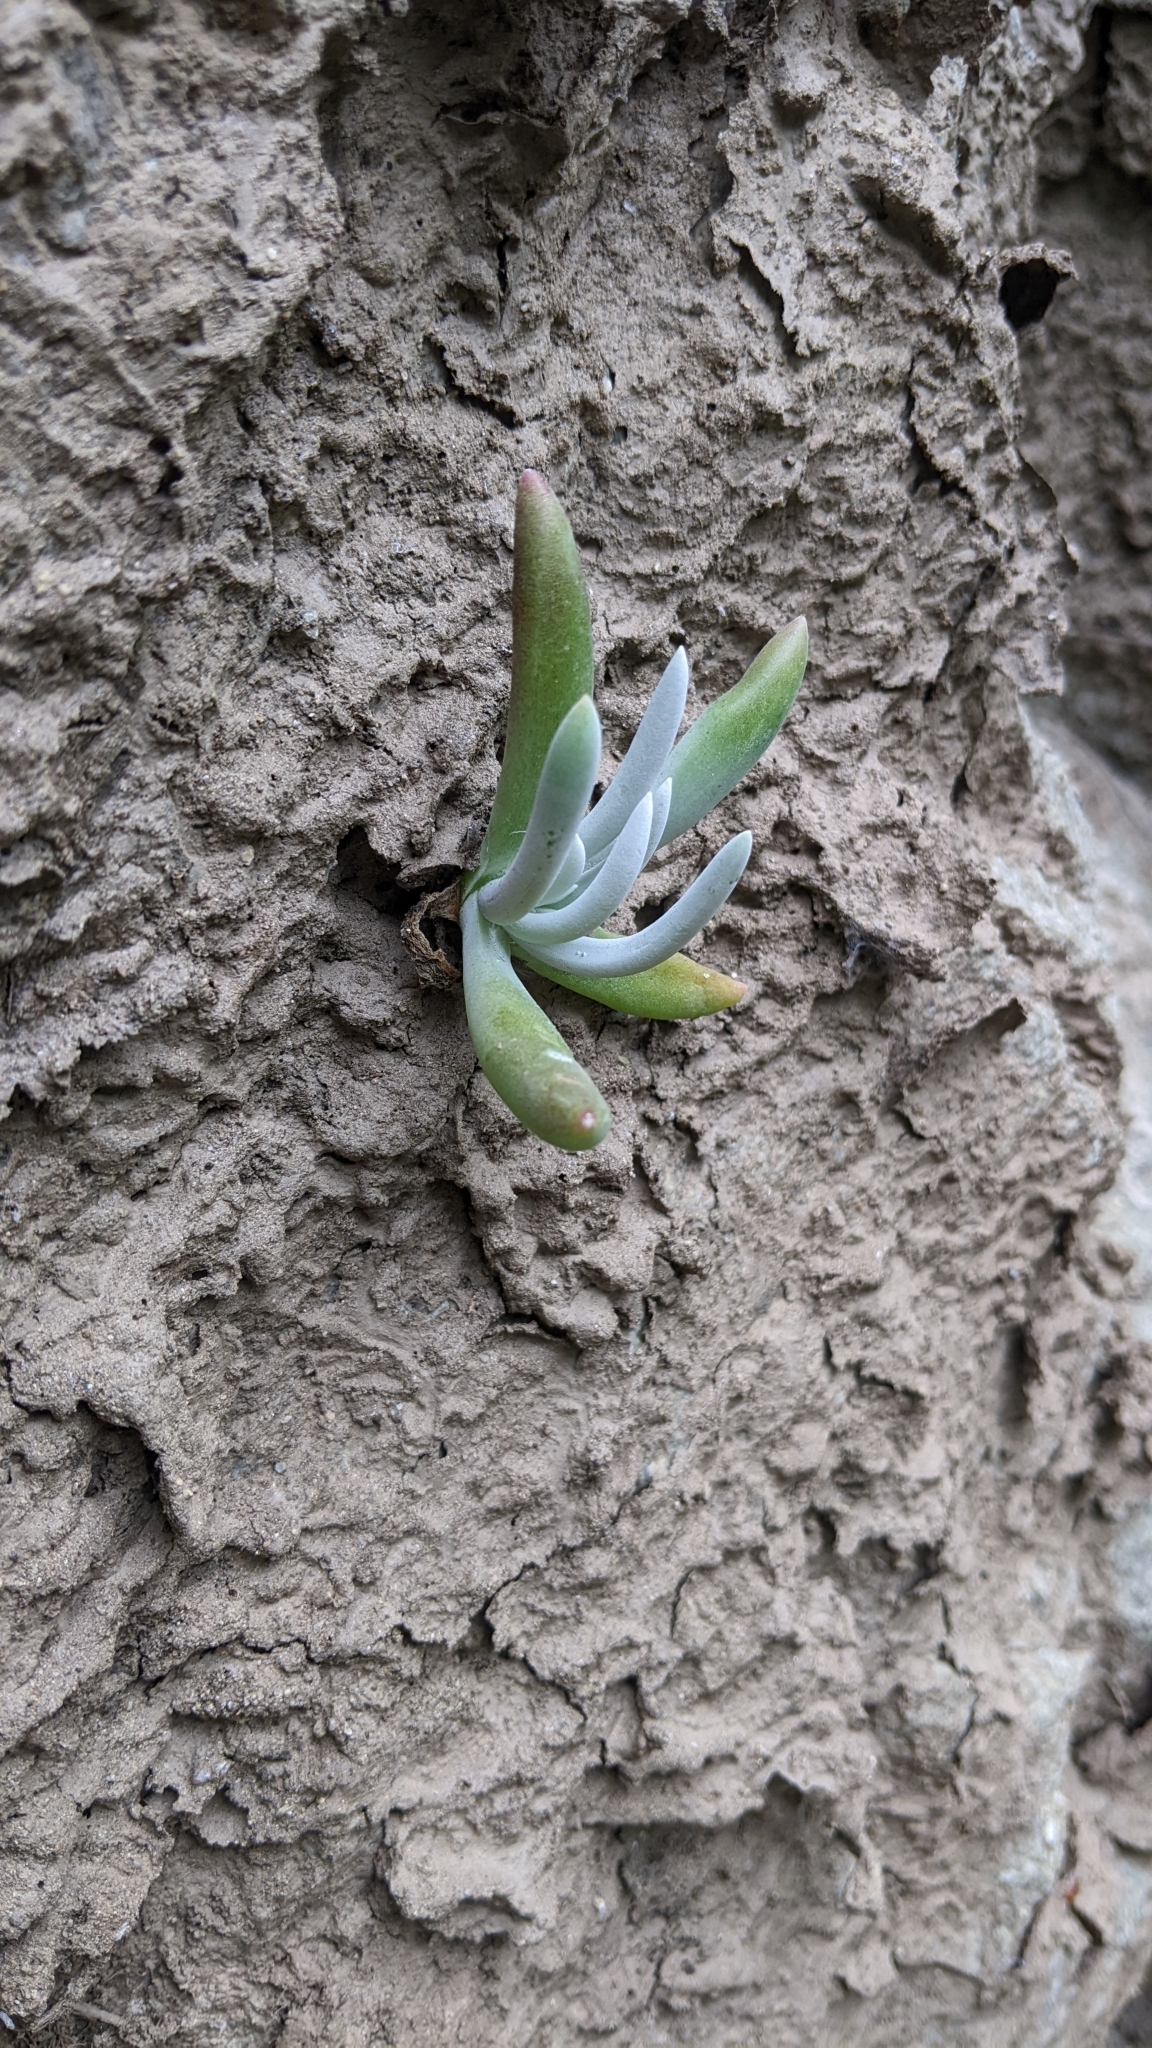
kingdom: Plantae
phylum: Tracheophyta
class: Magnoliopsida
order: Saxifragales
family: Crassulaceae
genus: Dudleya
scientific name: Dudleya densiflora
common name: San gabriel mountains dudleya
